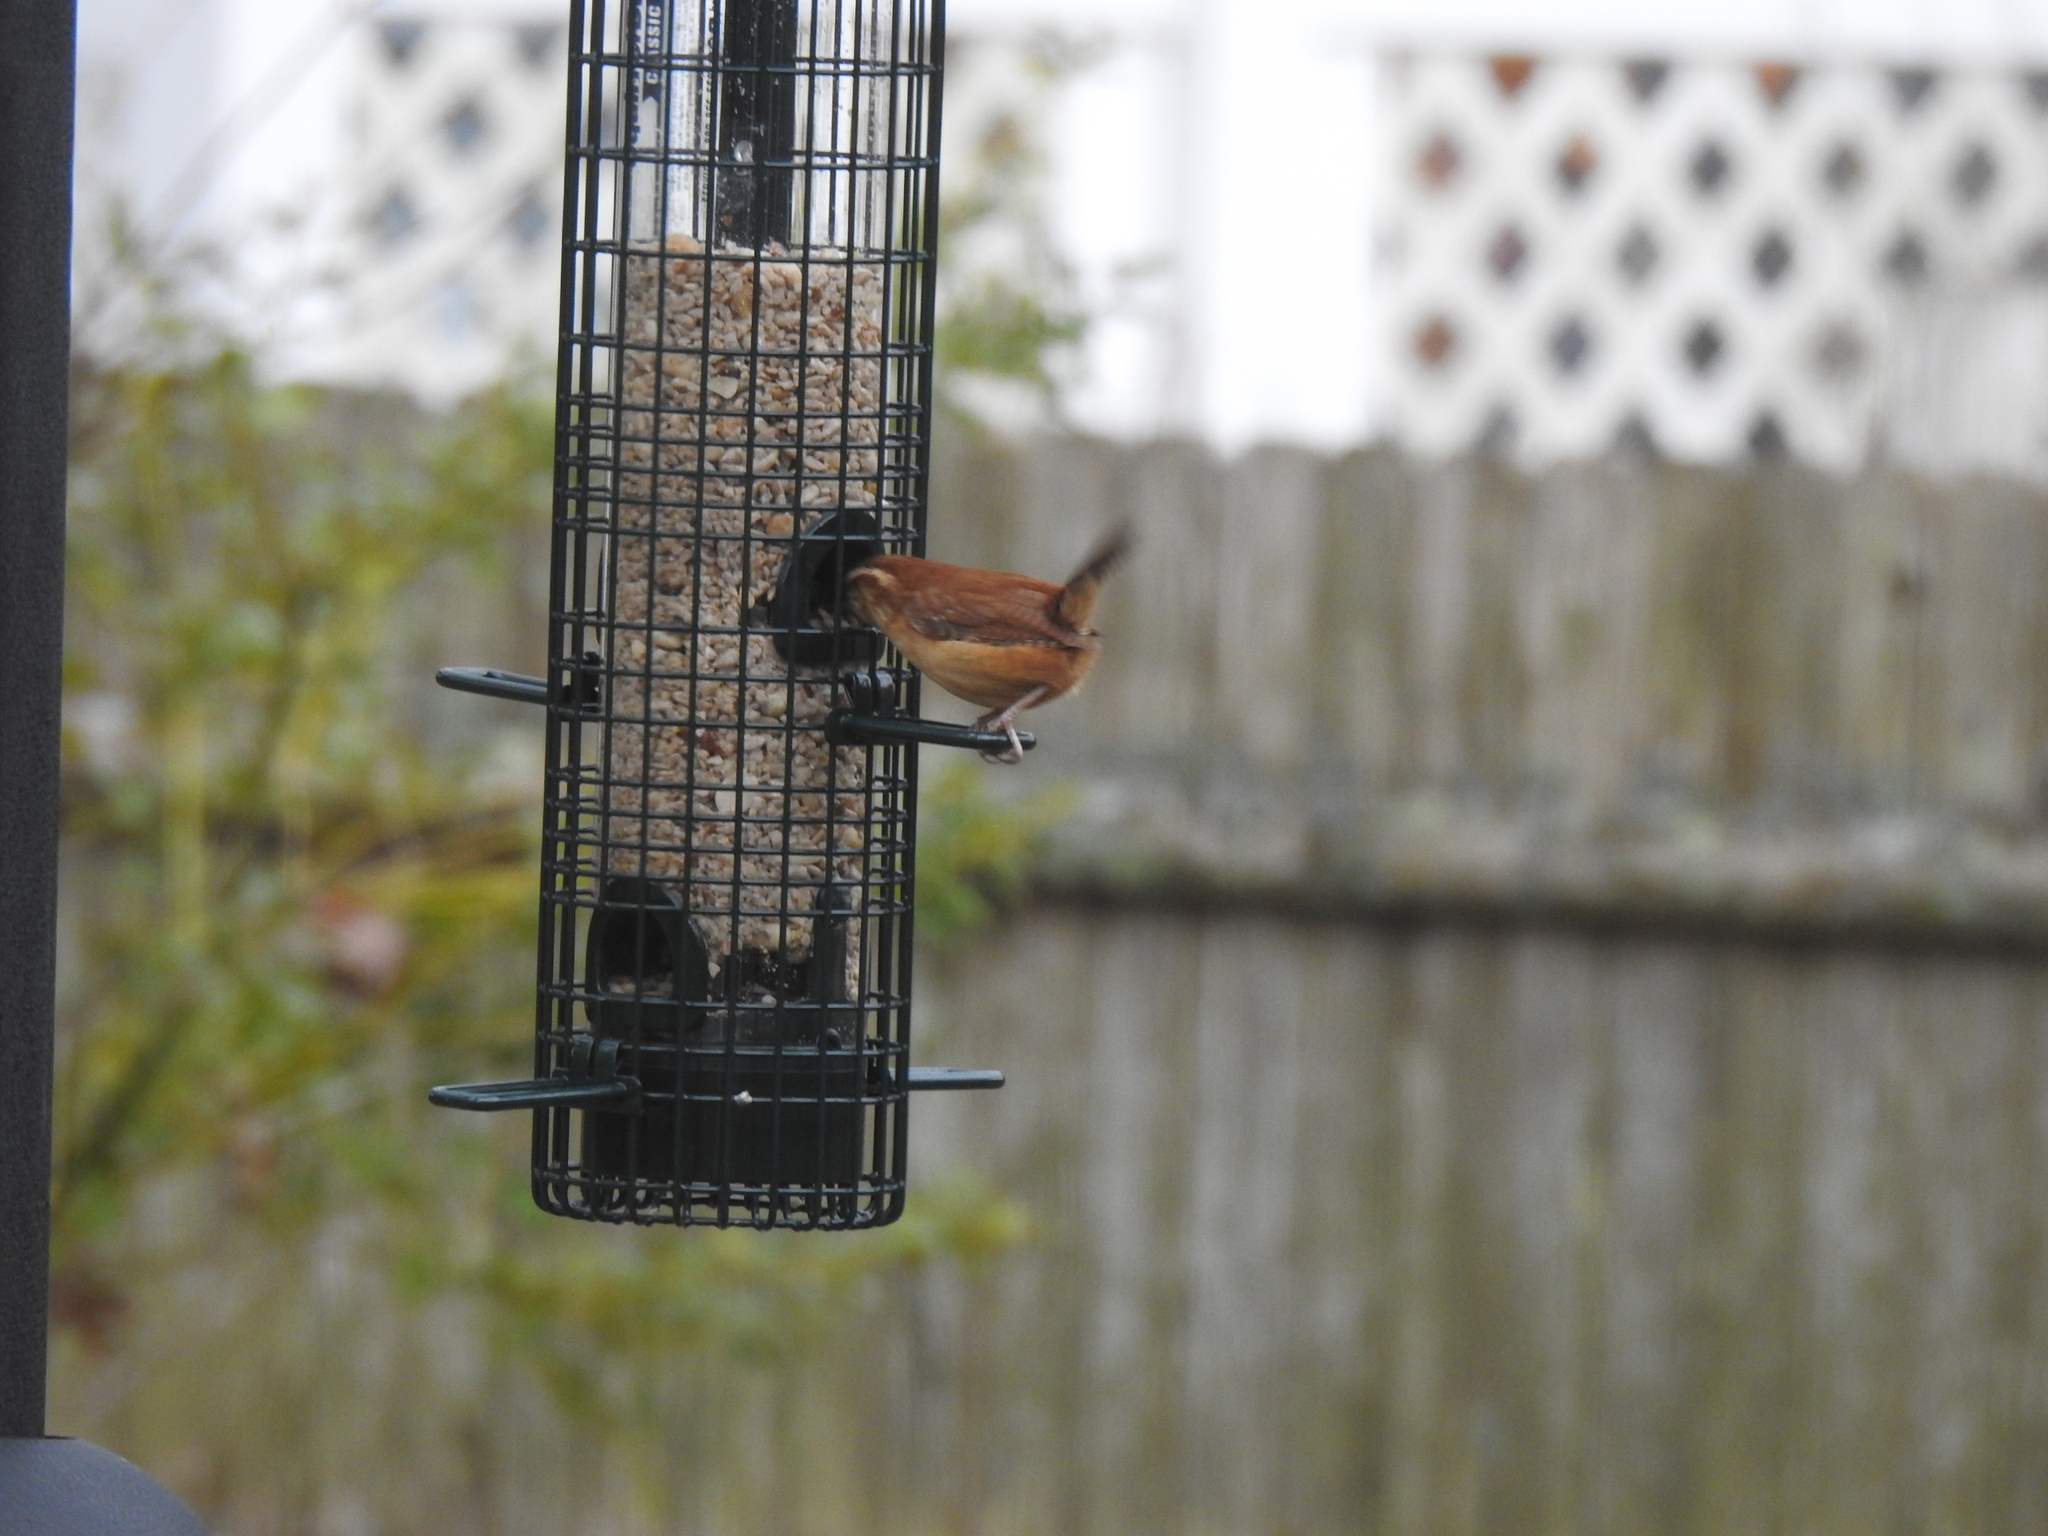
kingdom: Animalia
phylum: Chordata
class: Aves
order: Passeriformes
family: Troglodytidae
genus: Thryothorus
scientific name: Thryothorus ludovicianus
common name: Carolina wren
